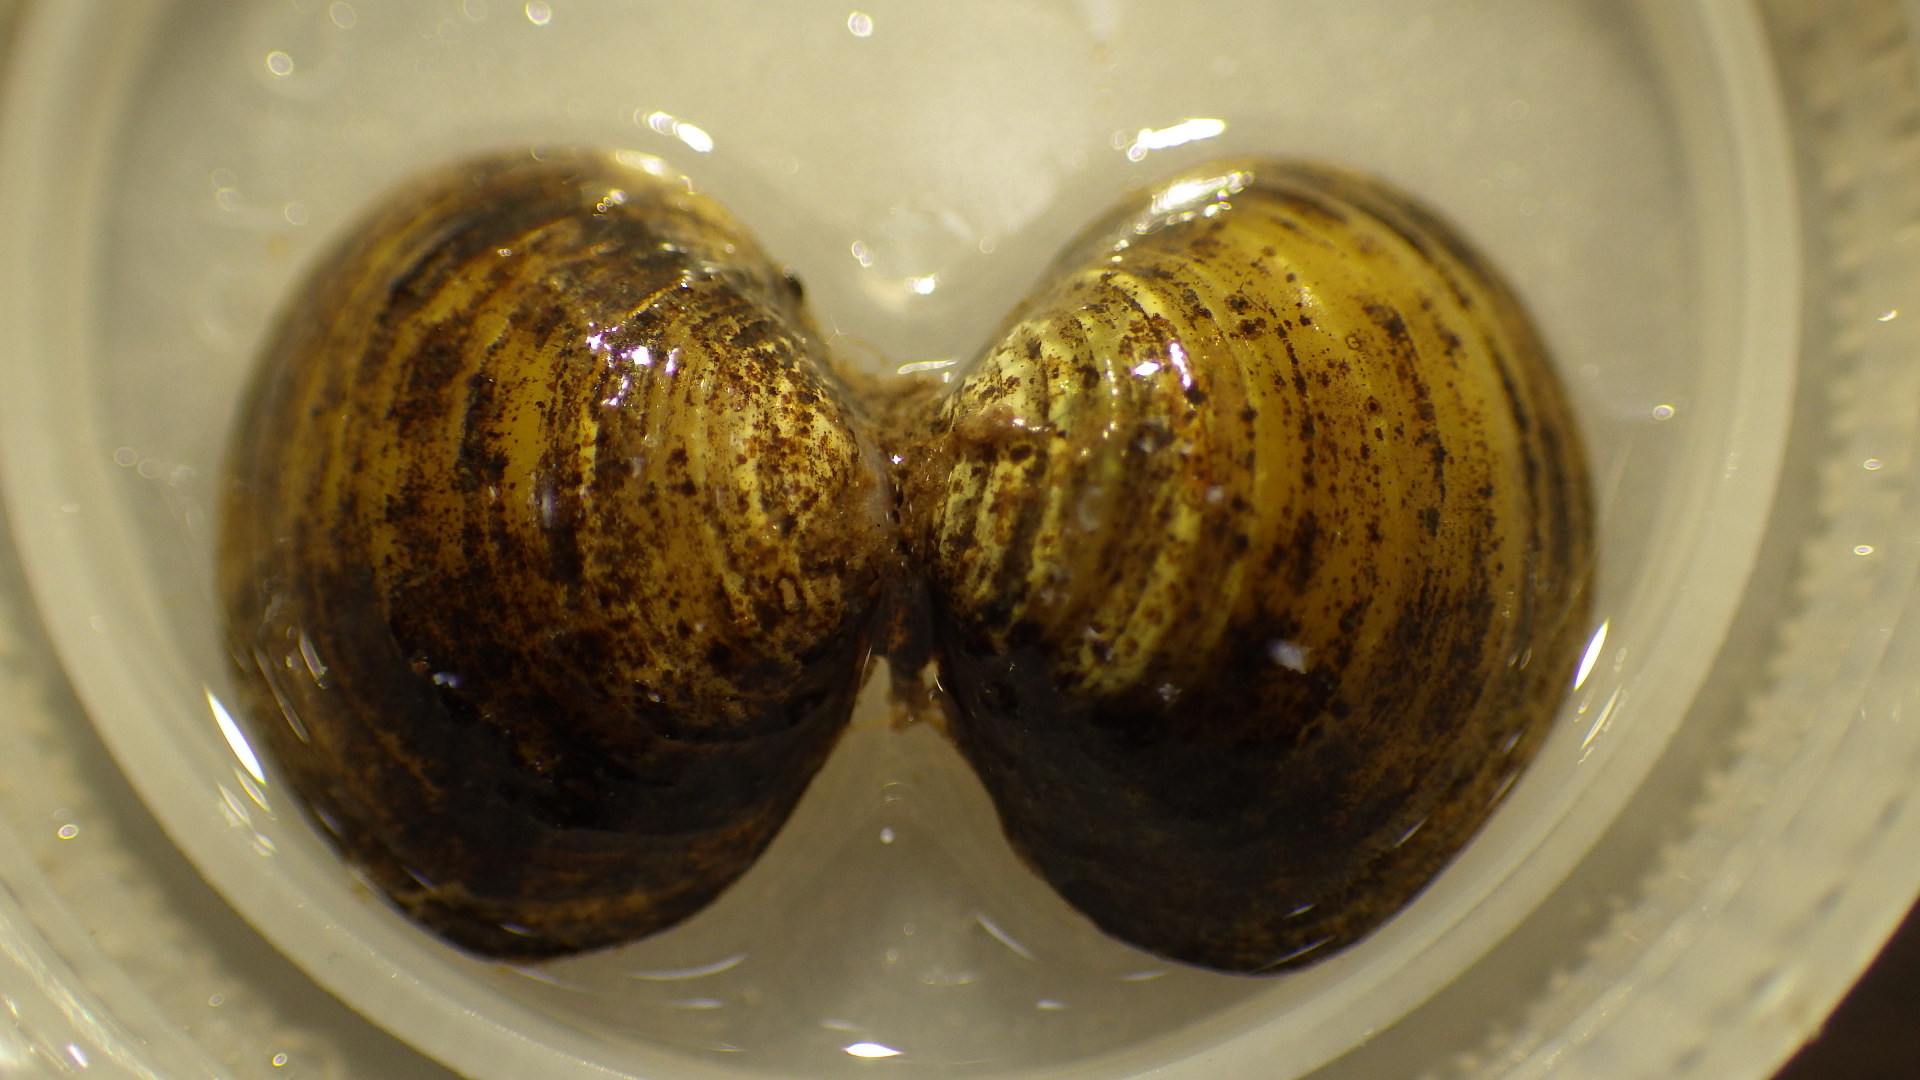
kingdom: Animalia
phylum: Mollusca
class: Bivalvia
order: Venerida
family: Cyrenidae
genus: Corbicula
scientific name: Corbicula fluminea
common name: Asian clam
